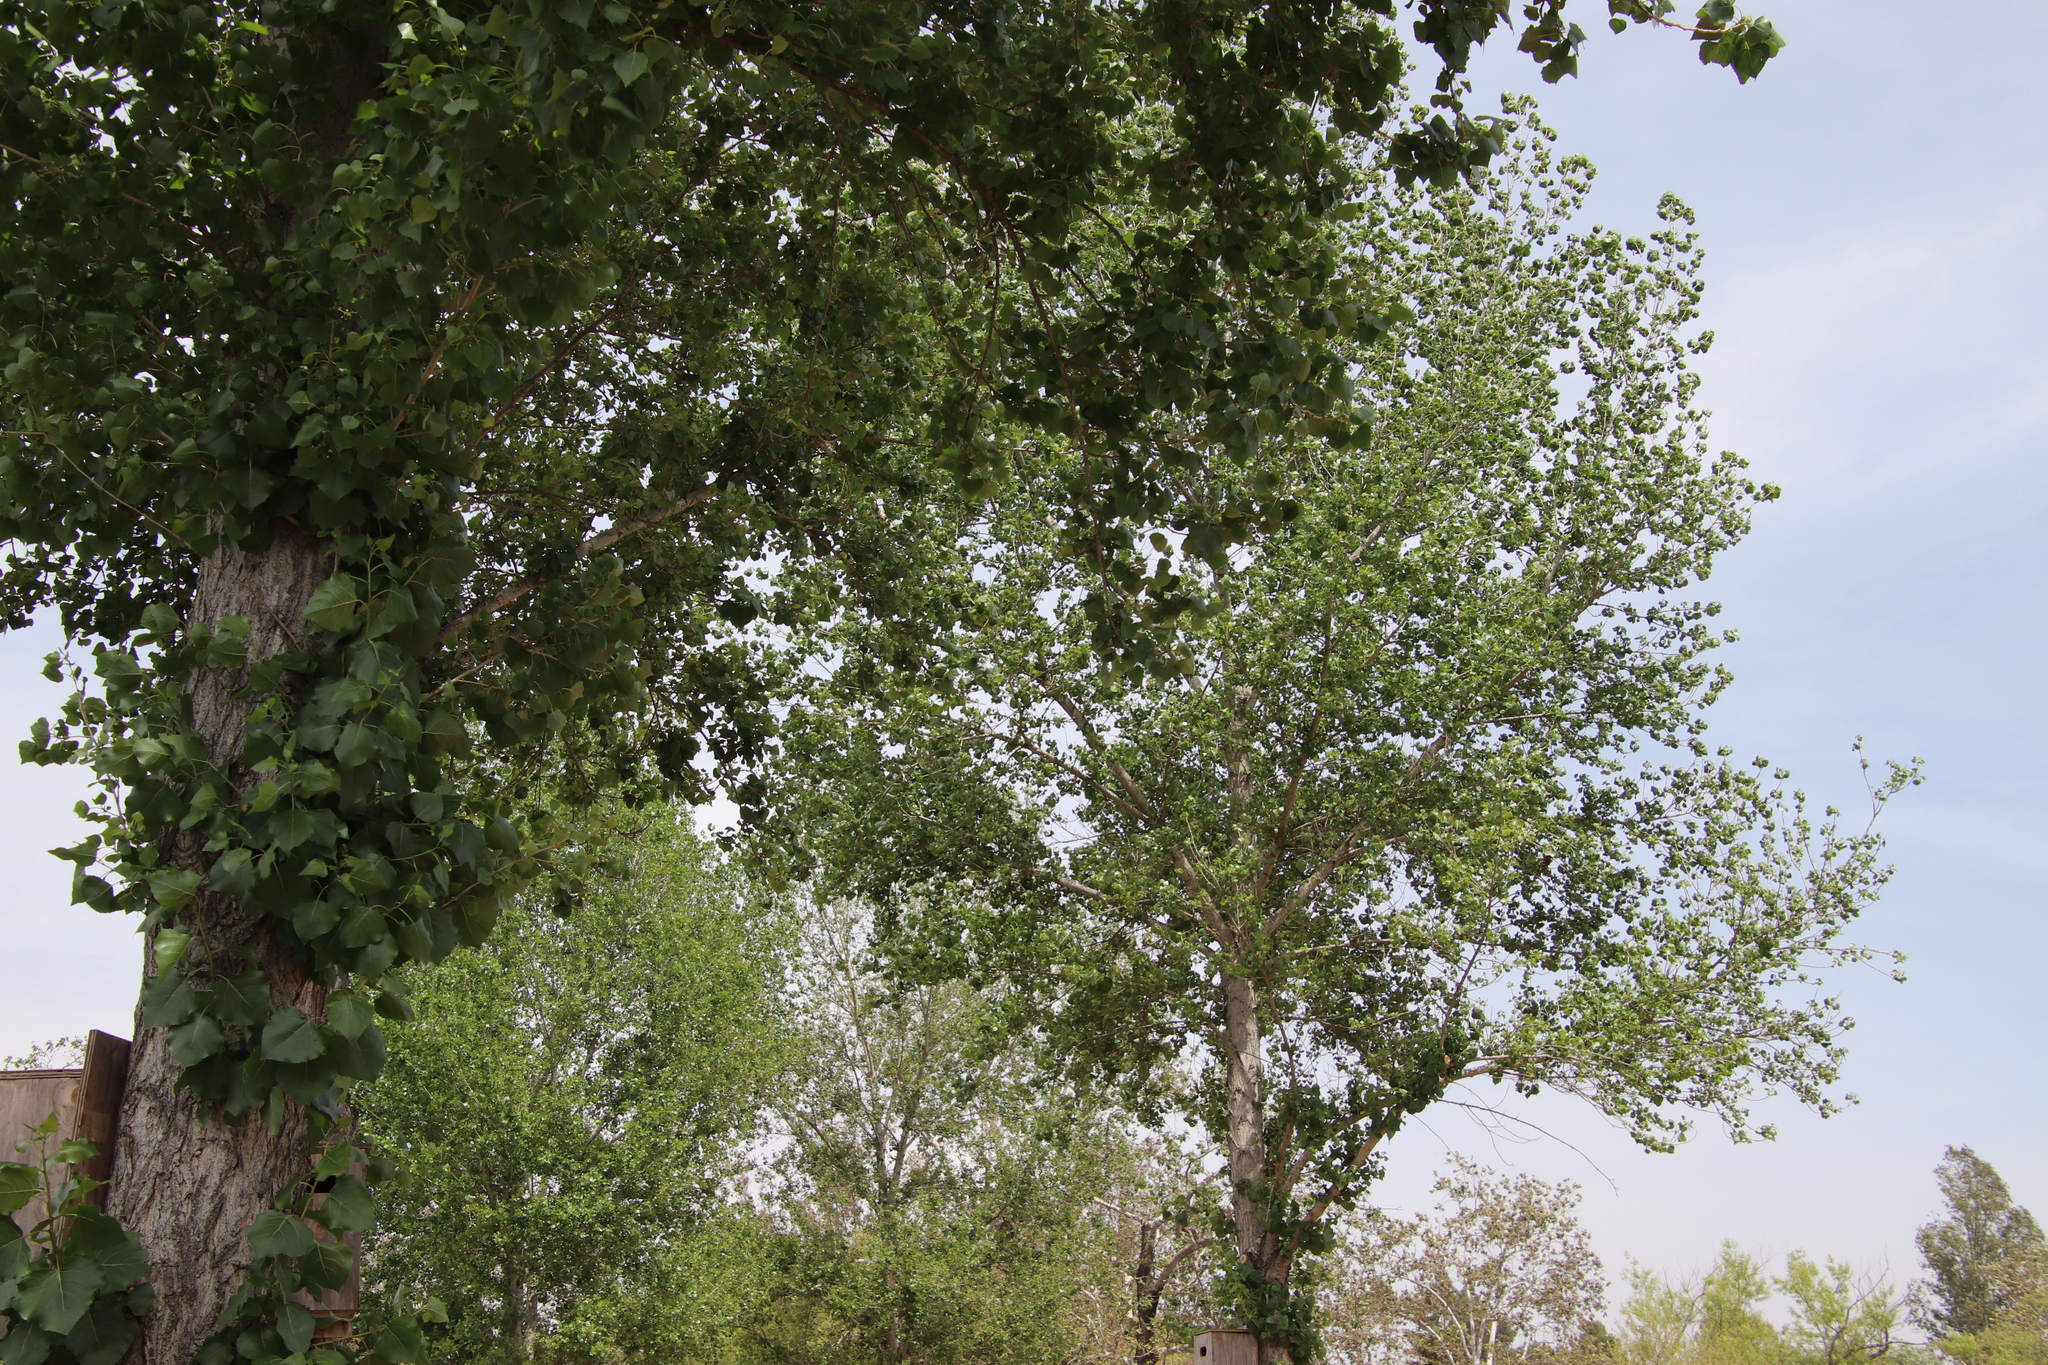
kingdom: Plantae
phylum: Tracheophyta
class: Magnoliopsida
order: Malpighiales
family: Salicaceae
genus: Populus
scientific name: Populus fremontii
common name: Fremont's cottonwood
